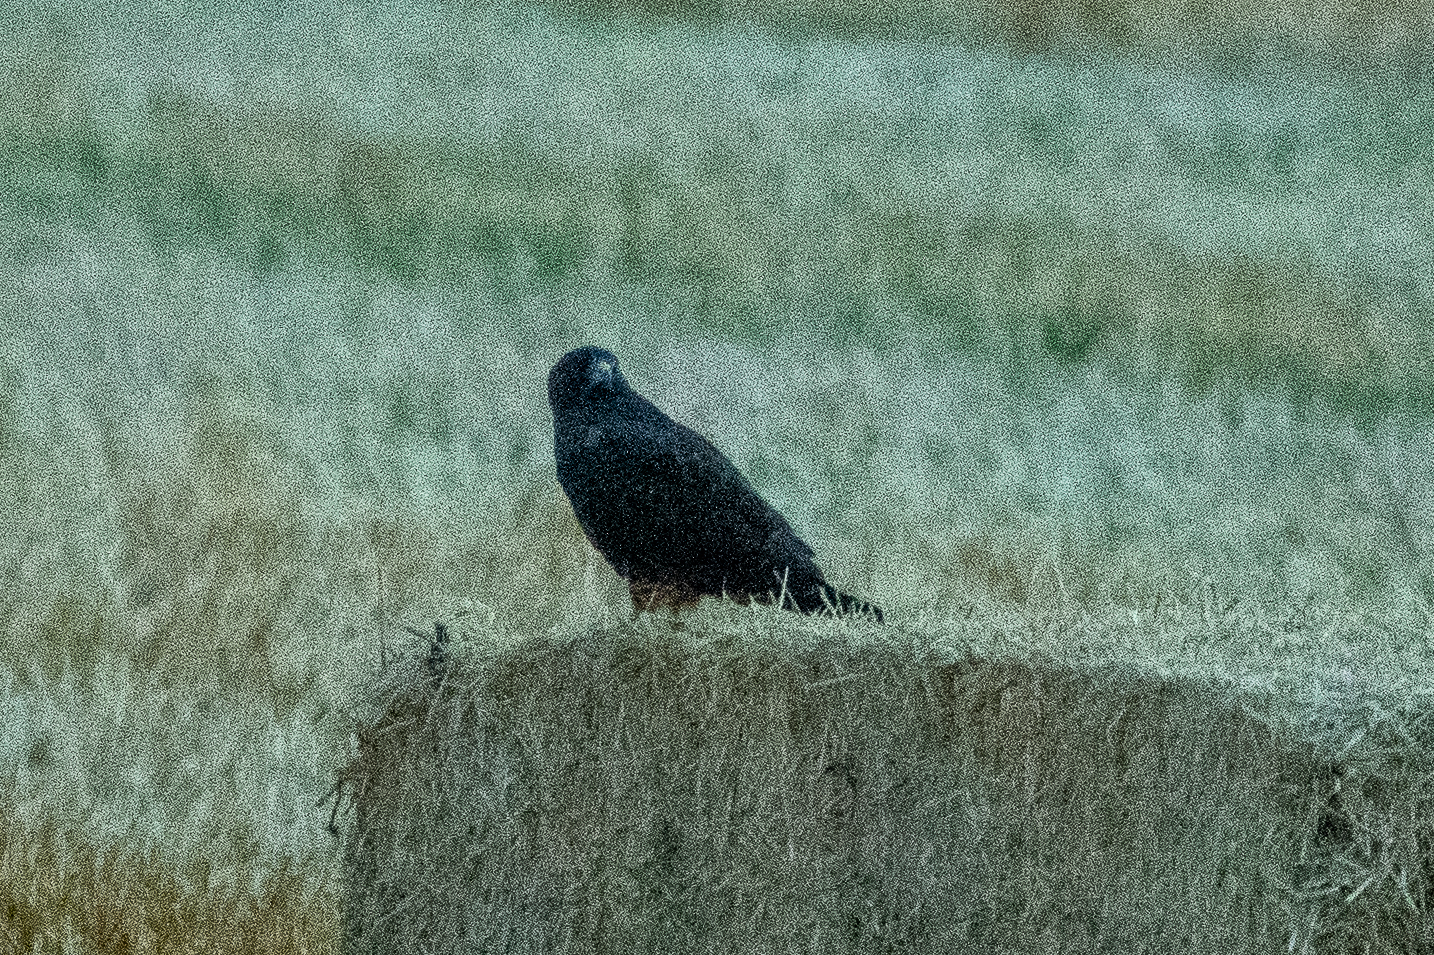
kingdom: Animalia
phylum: Chordata
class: Aves
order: Accipitriformes
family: Accipitridae
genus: Buteo
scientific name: Buteo swainsoni
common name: Swainson's hawk
